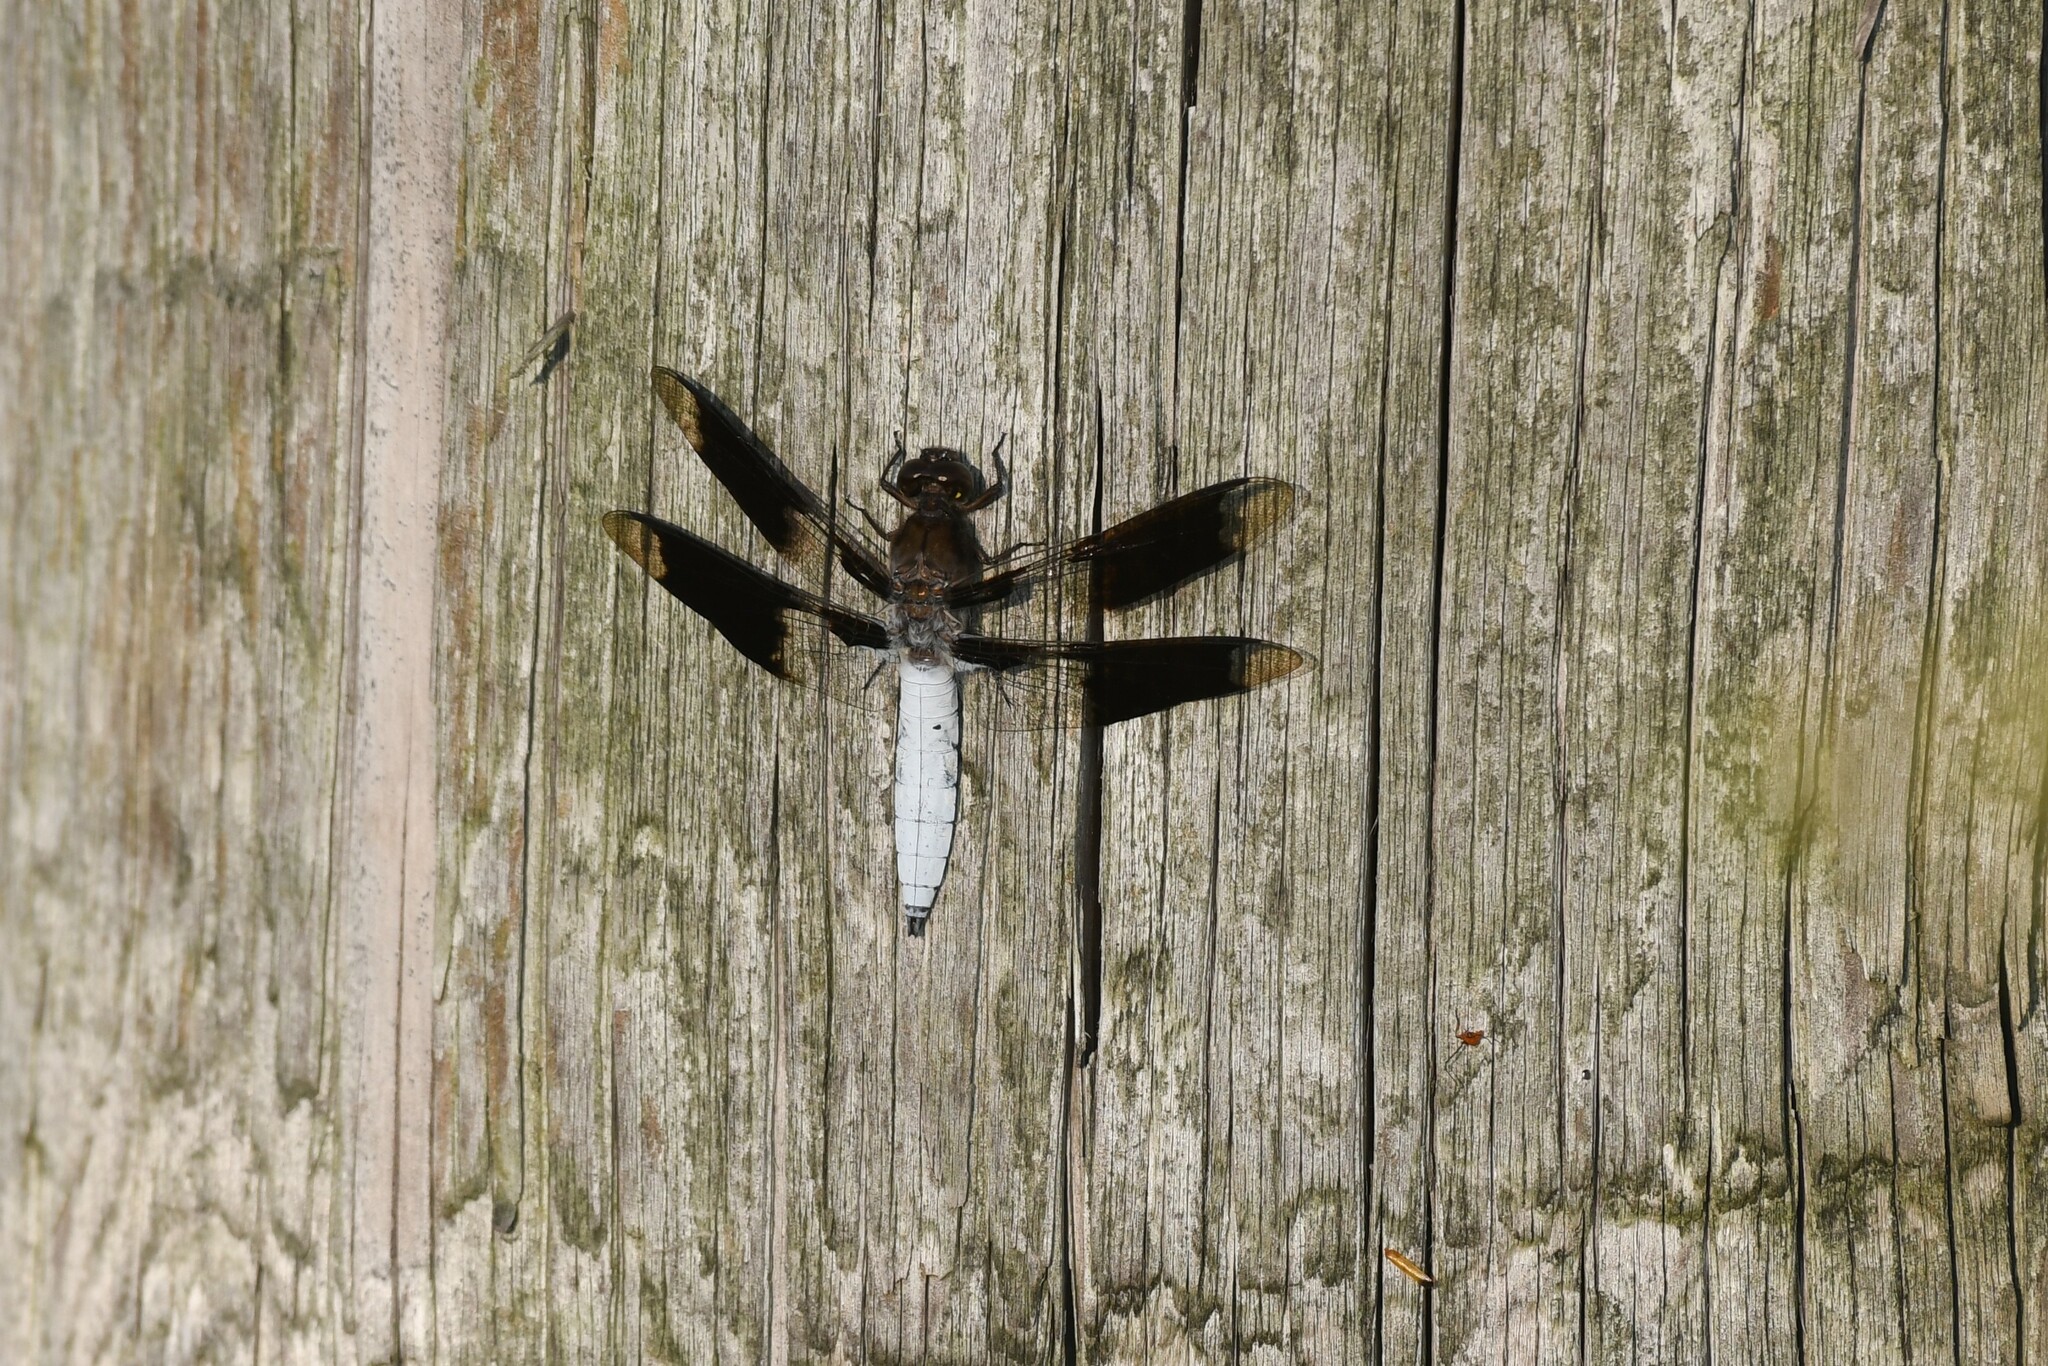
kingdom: Animalia
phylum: Arthropoda
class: Insecta
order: Odonata
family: Libellulidae
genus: Plathemis
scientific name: Plathemis lydia
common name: Common whitetail
